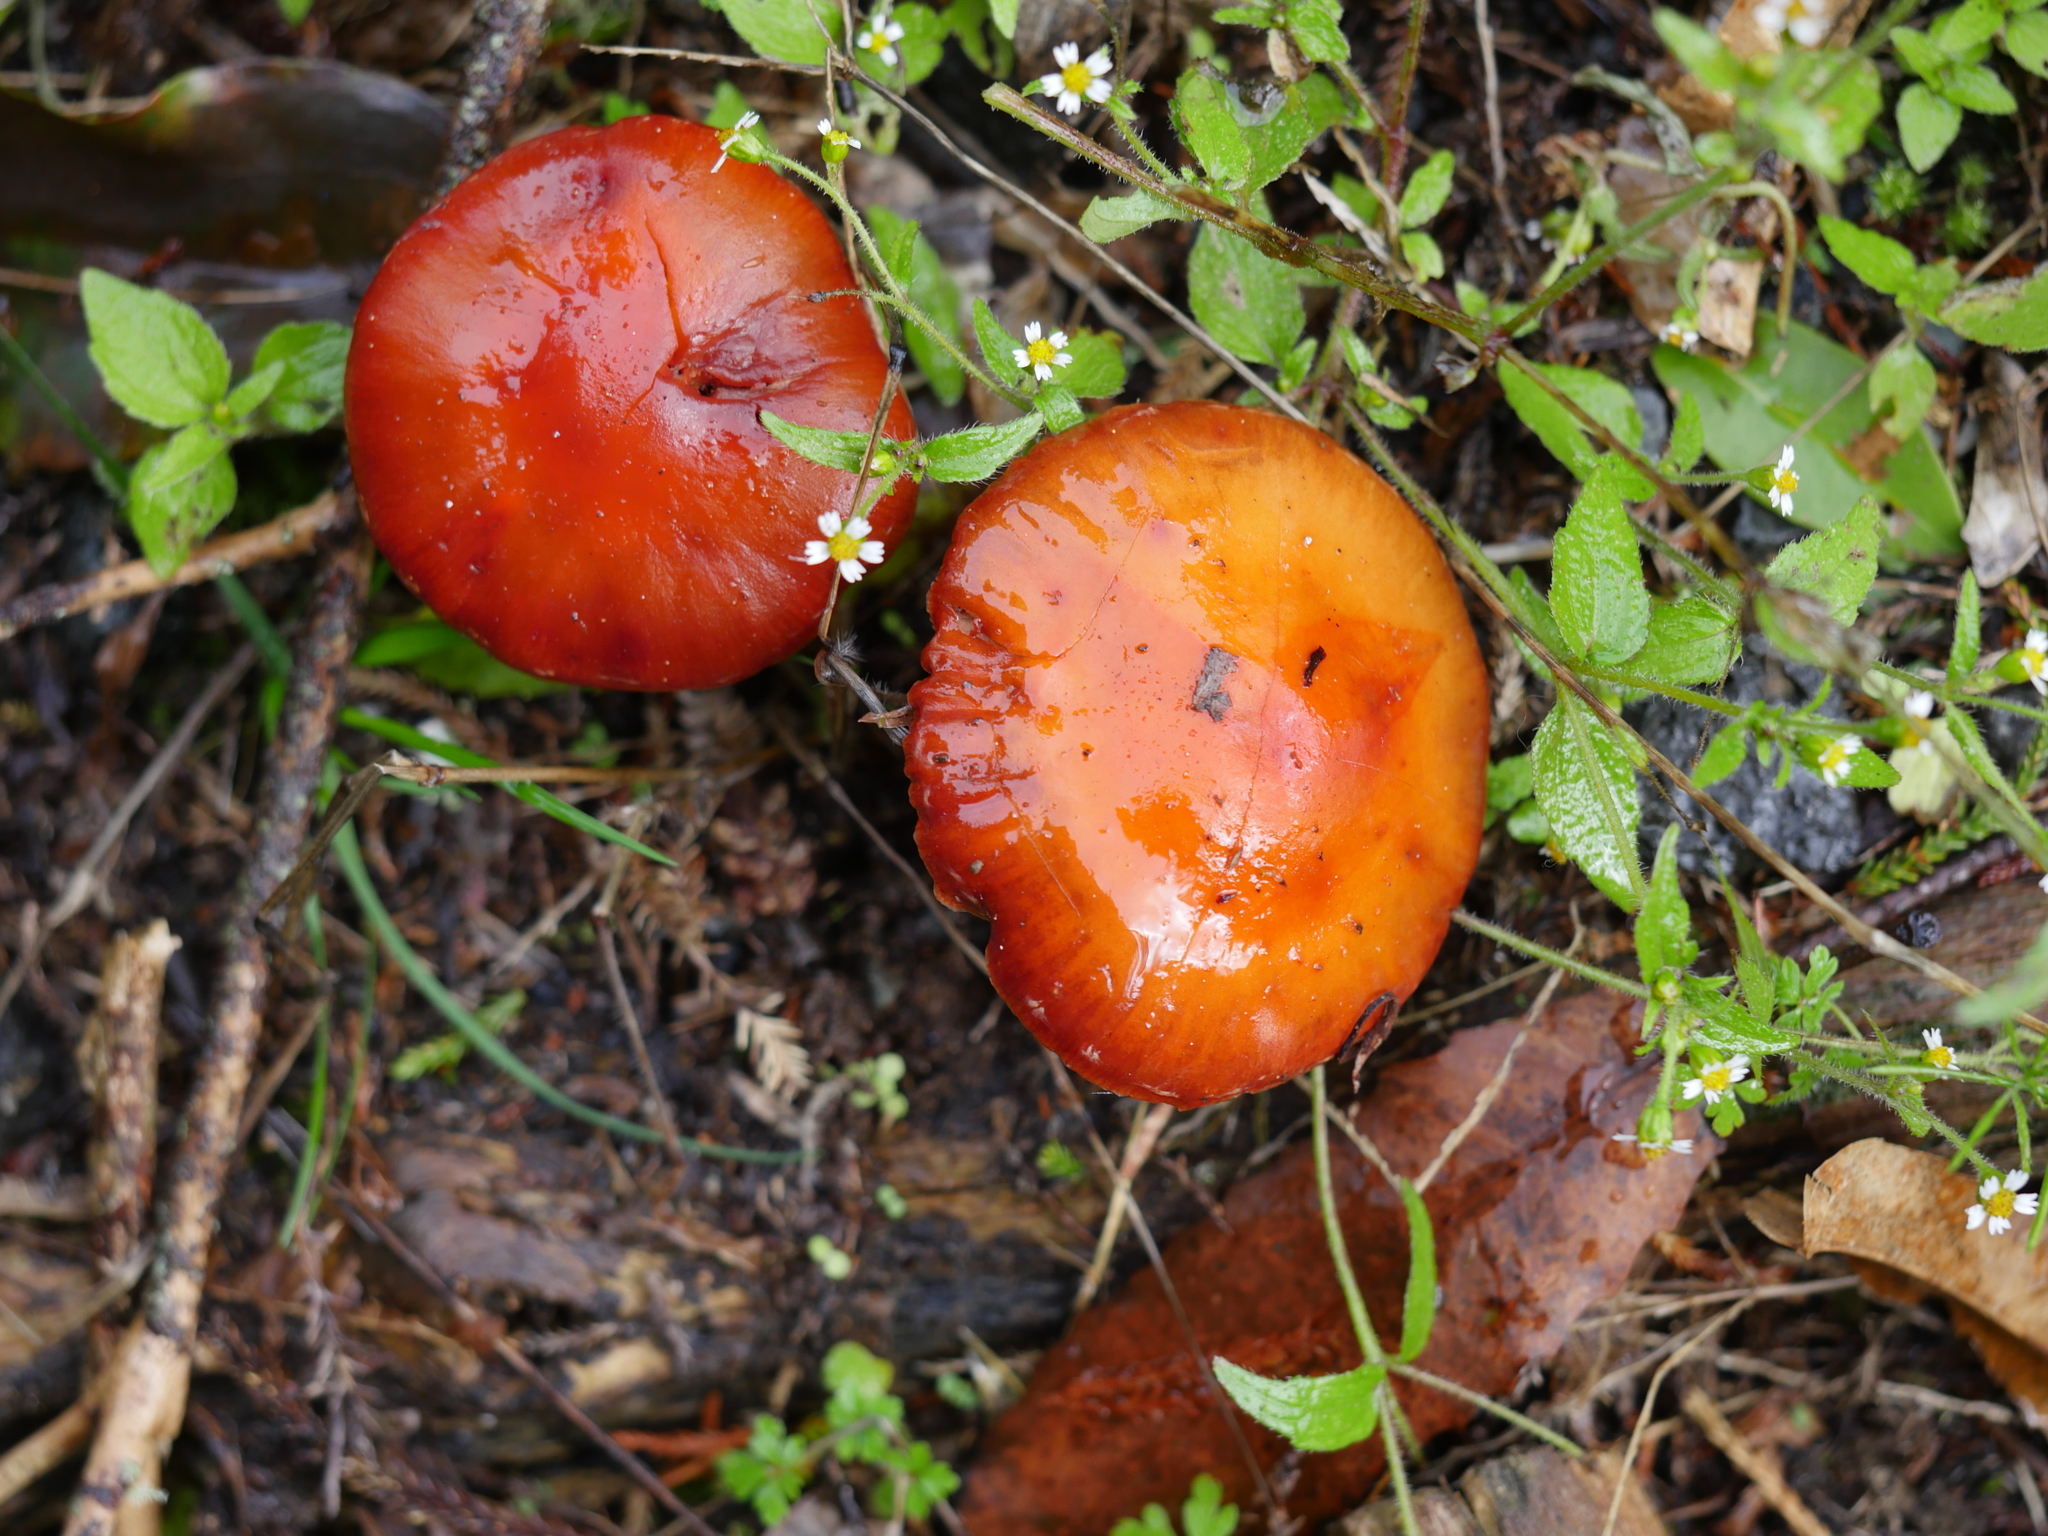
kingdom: Fungi
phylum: Basidiomycota
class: Agaricomycetes
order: Agaricales
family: Strophariaceae
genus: Leratiomyces
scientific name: Leratiomyces ceres
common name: Redlead roundhead
